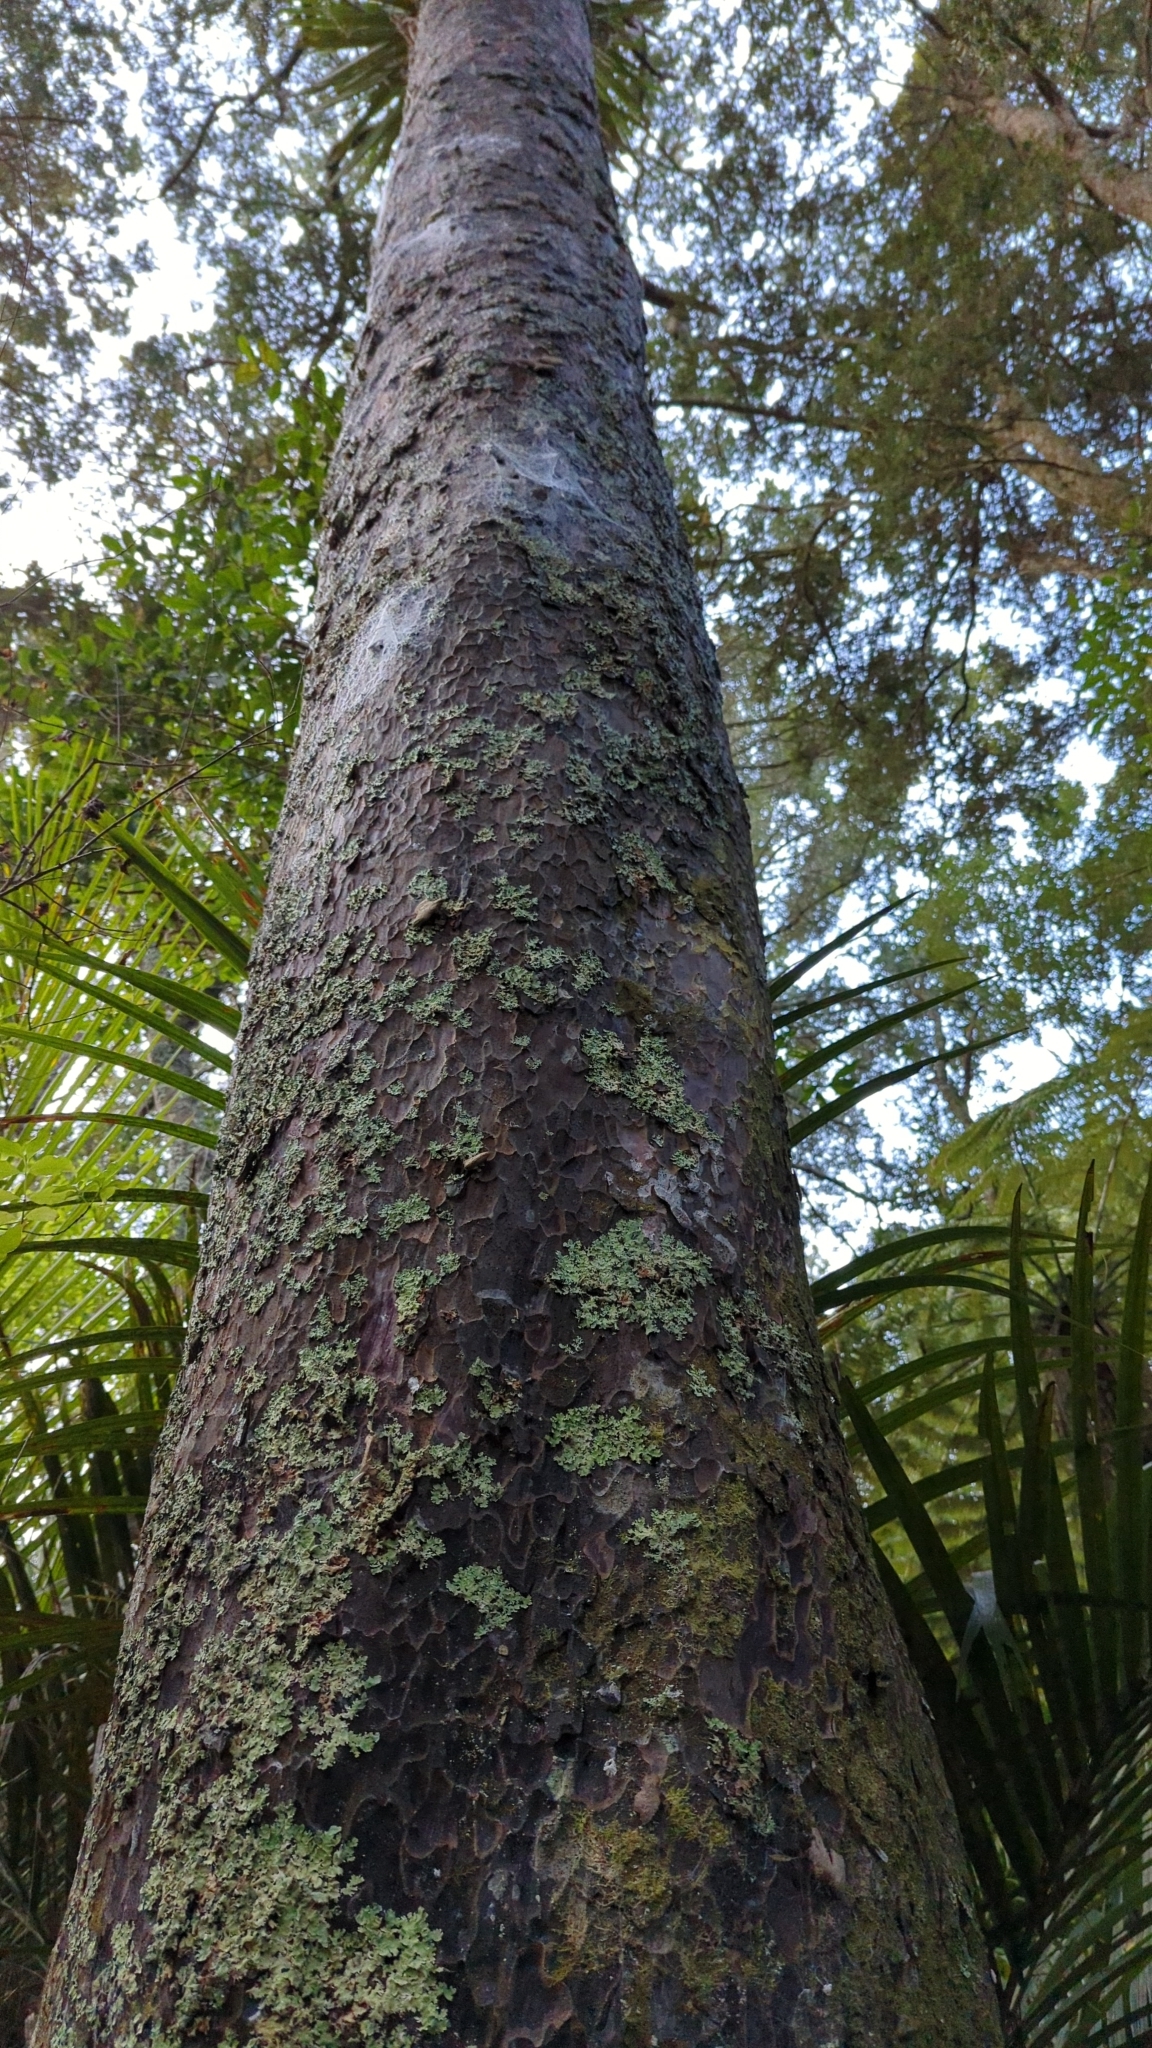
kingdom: Plantae
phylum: Tracheophyta
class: Pinopsida
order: Pinales
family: Podocarpaceae
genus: Prumnopitys
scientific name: Prumnopitys taxifolia
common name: Matai
